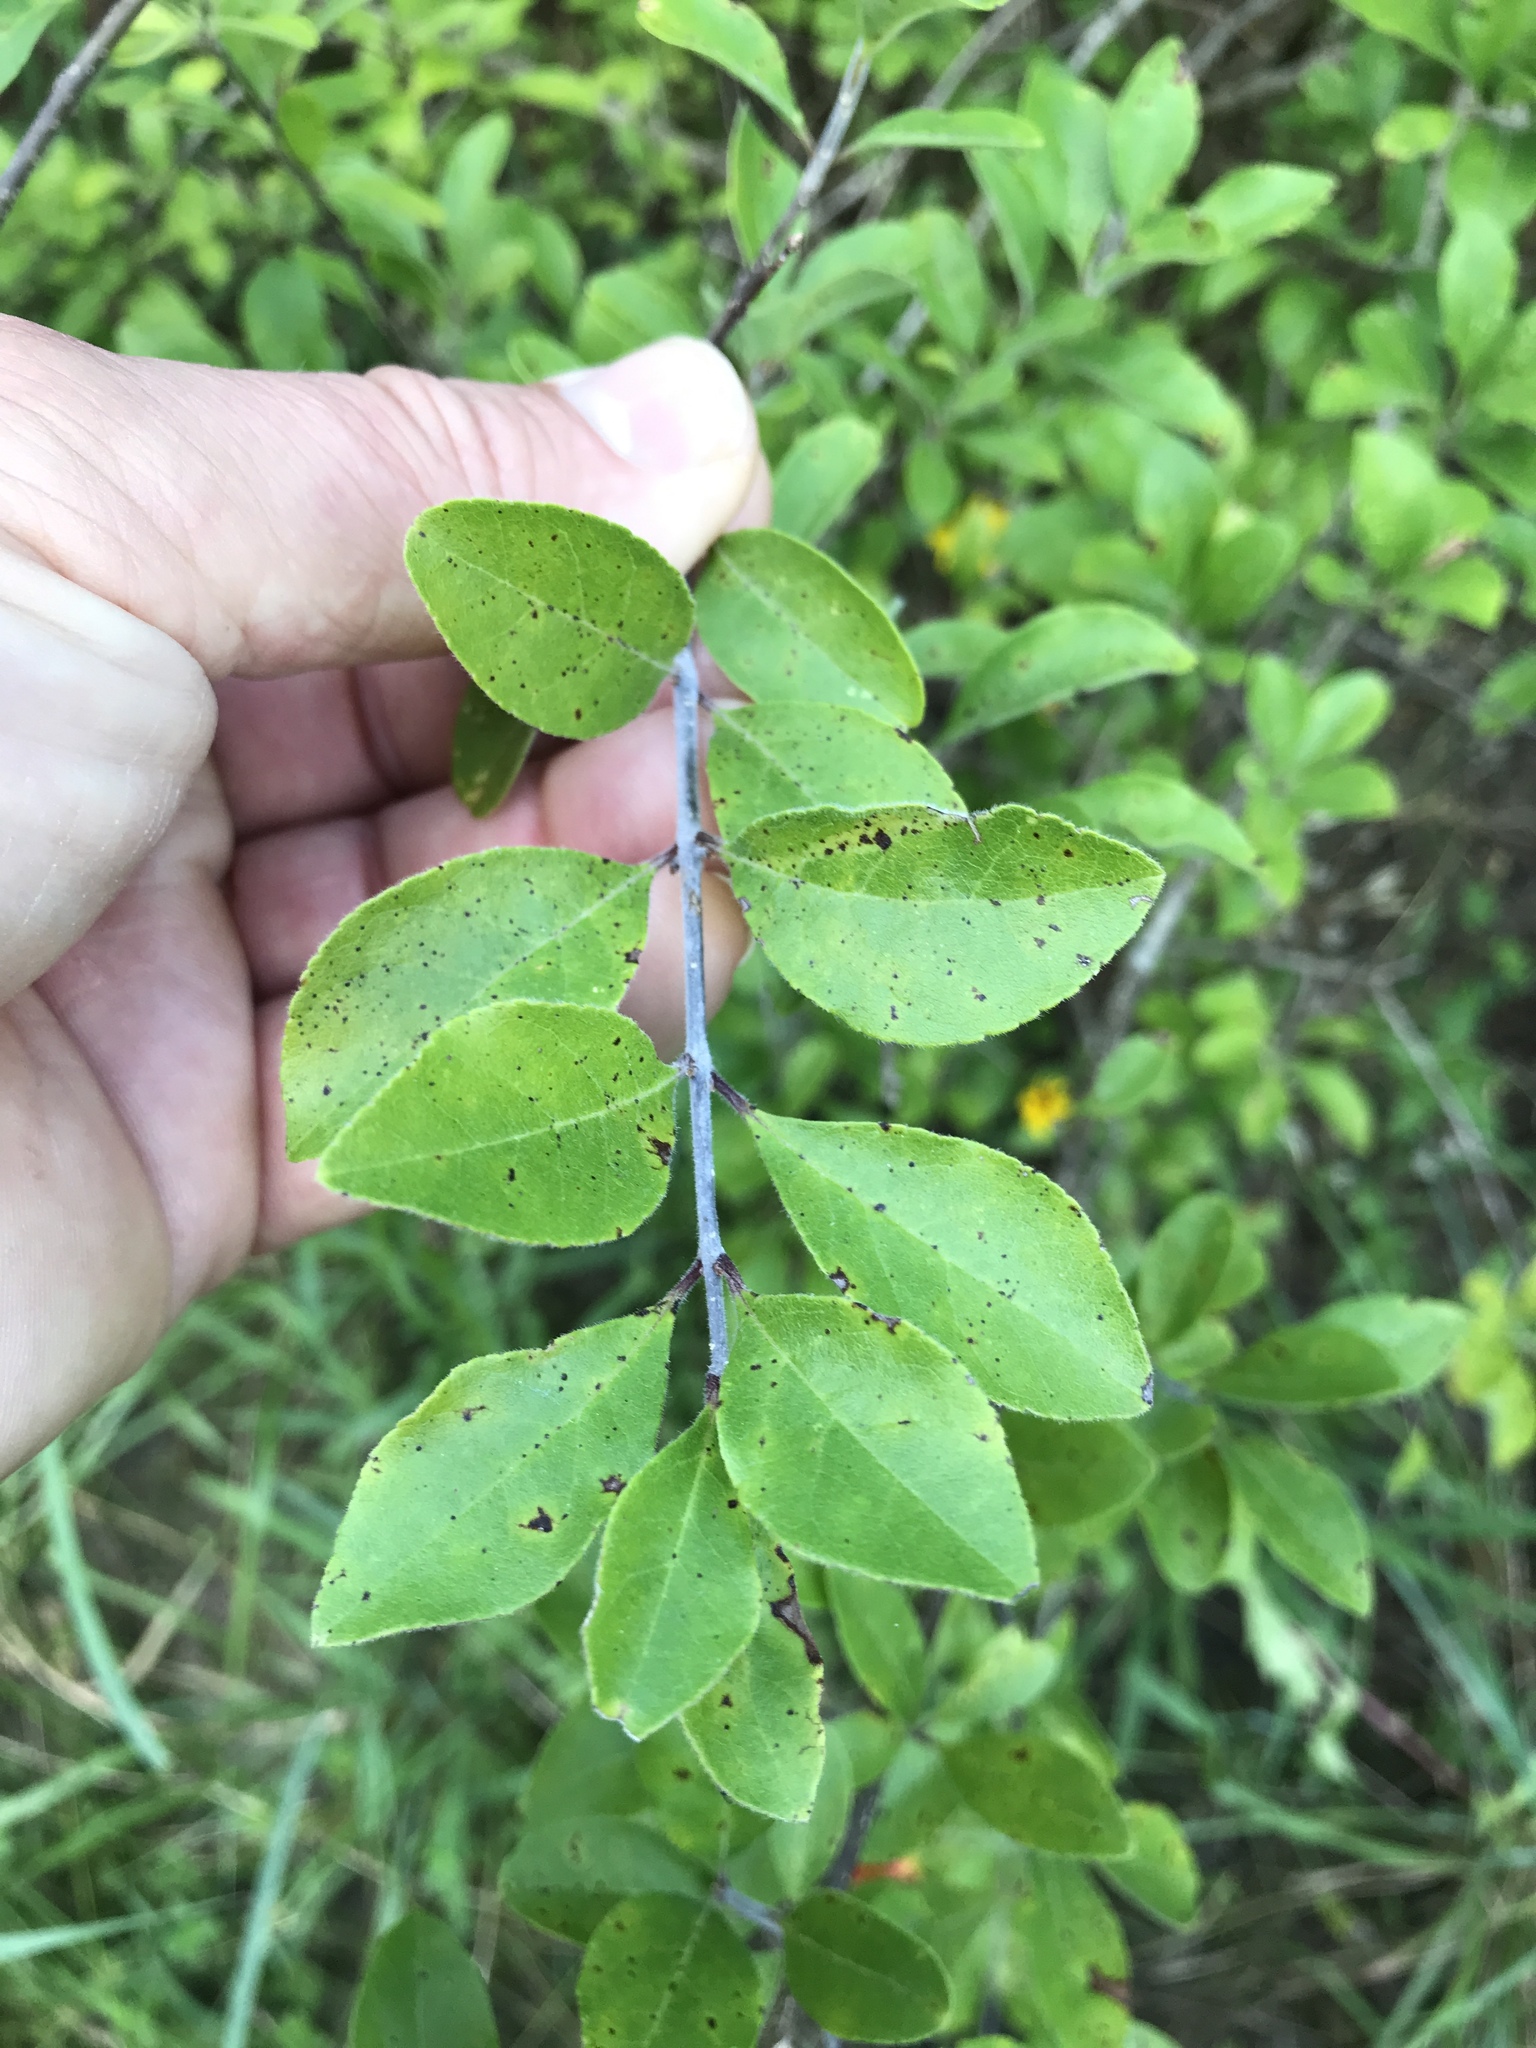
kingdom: Plantae
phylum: Tracheophyta
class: Magnoliopsida
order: Lamiales
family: Oleaceae
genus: Forestiera
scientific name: Forestiera pubescens
